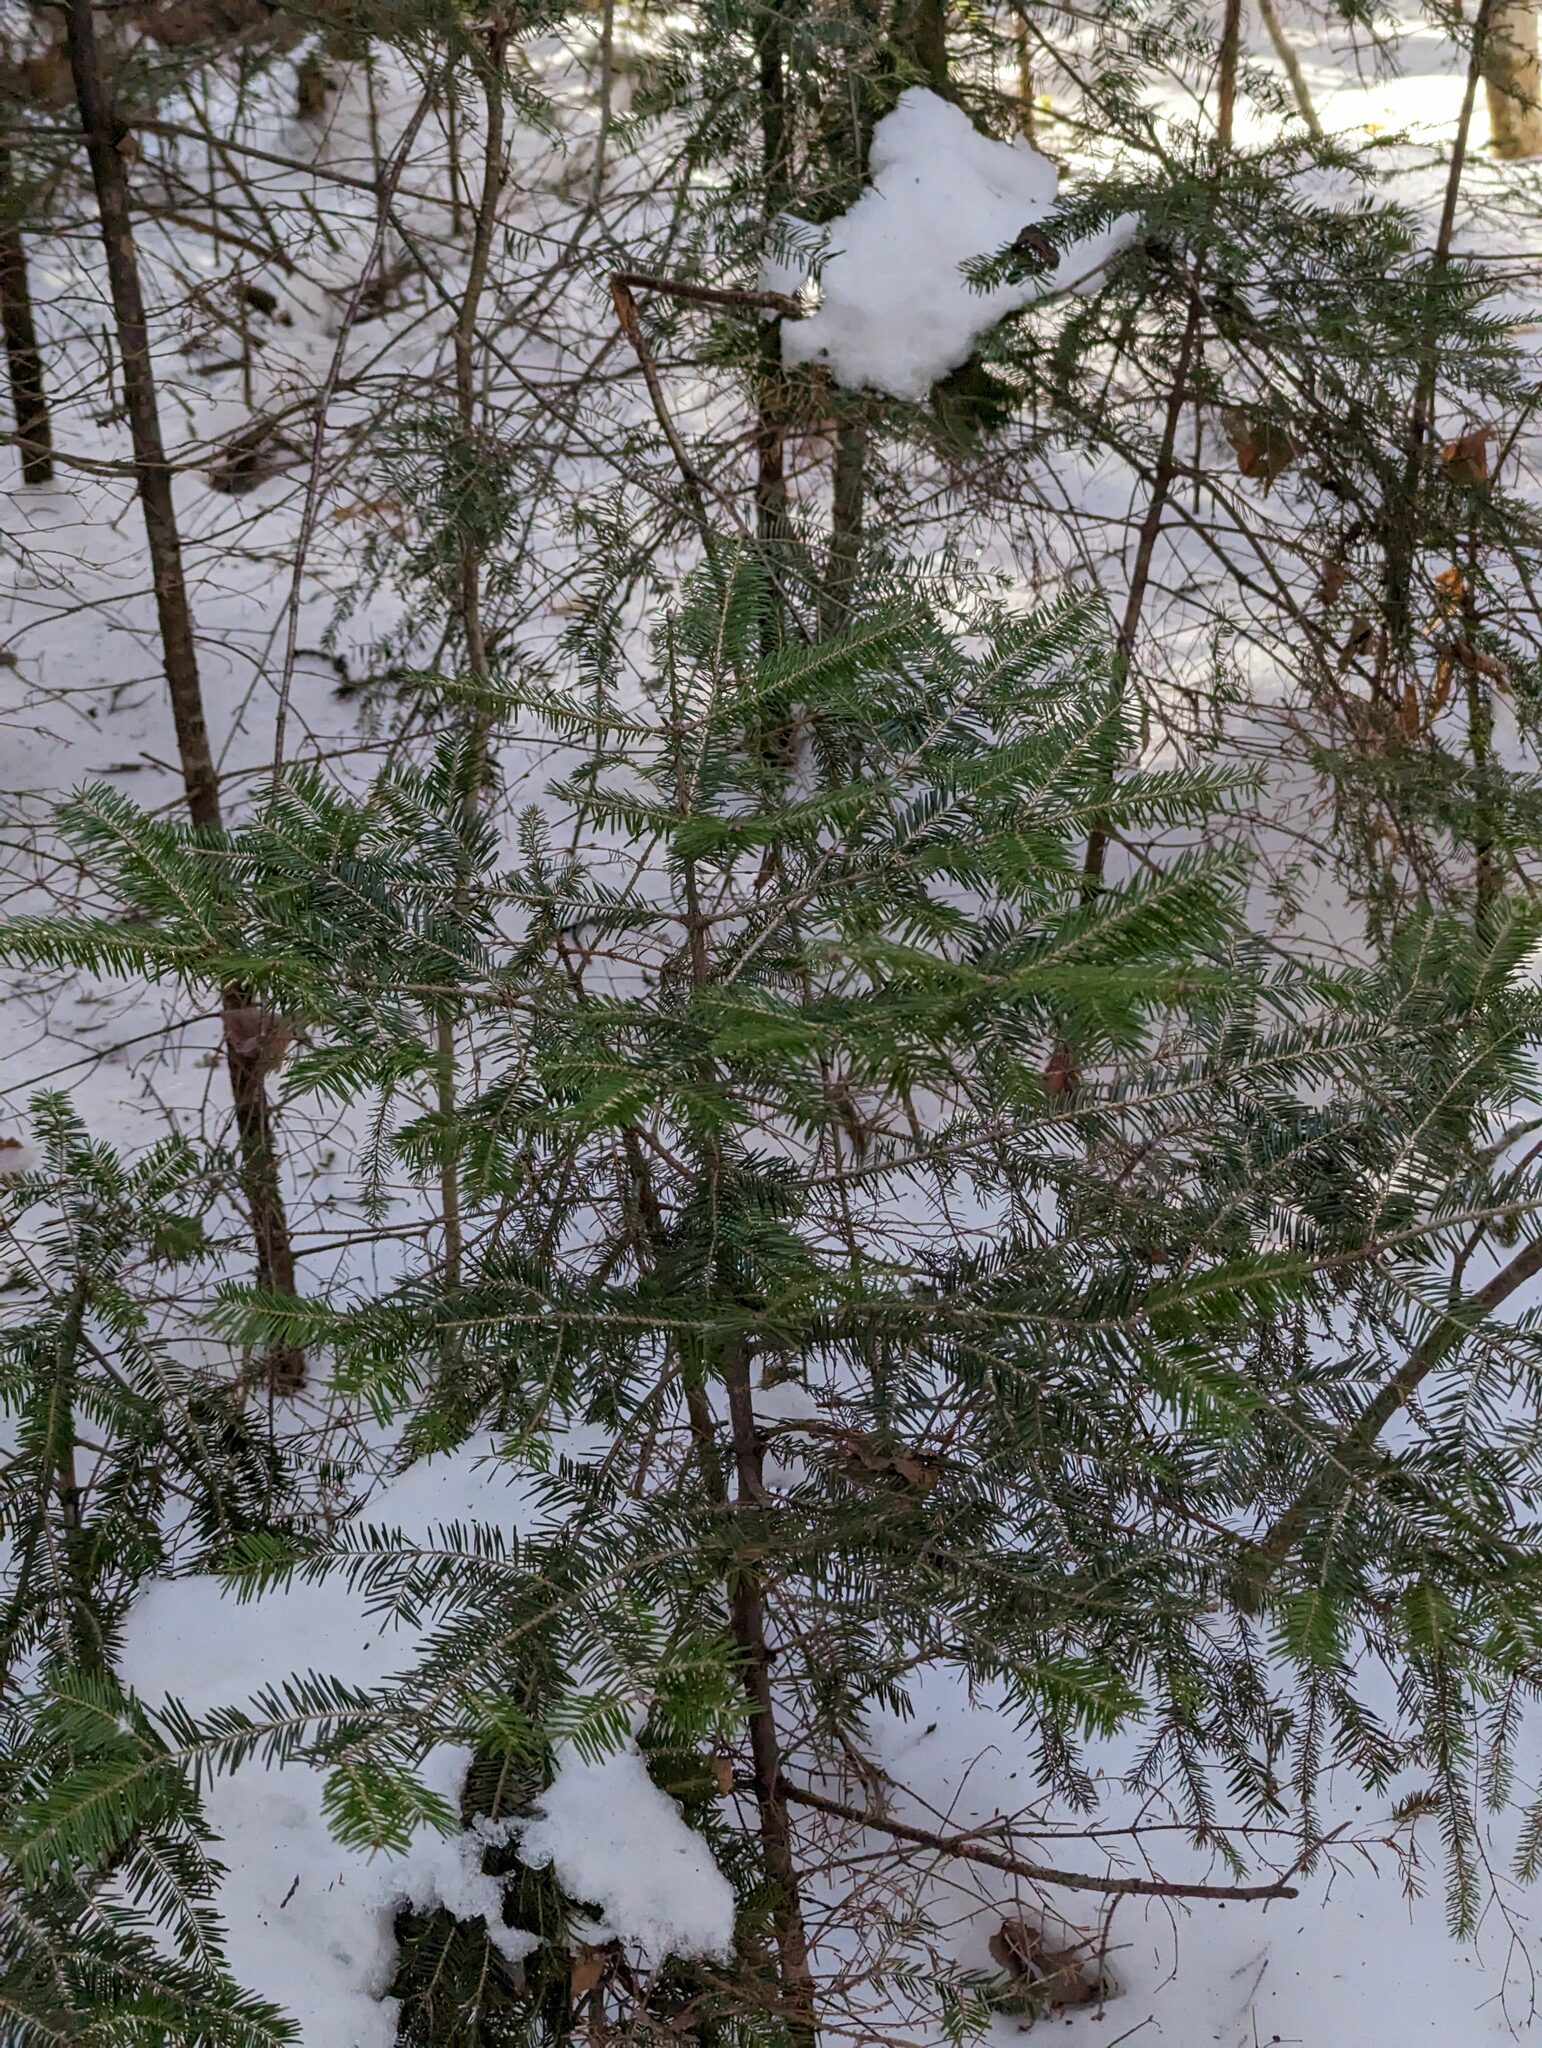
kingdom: Plantae
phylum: Tracheophyta
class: Pinopsida
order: Pinales
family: Pinaceae
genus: Abies
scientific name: Abies balsamea
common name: Balsam fir
